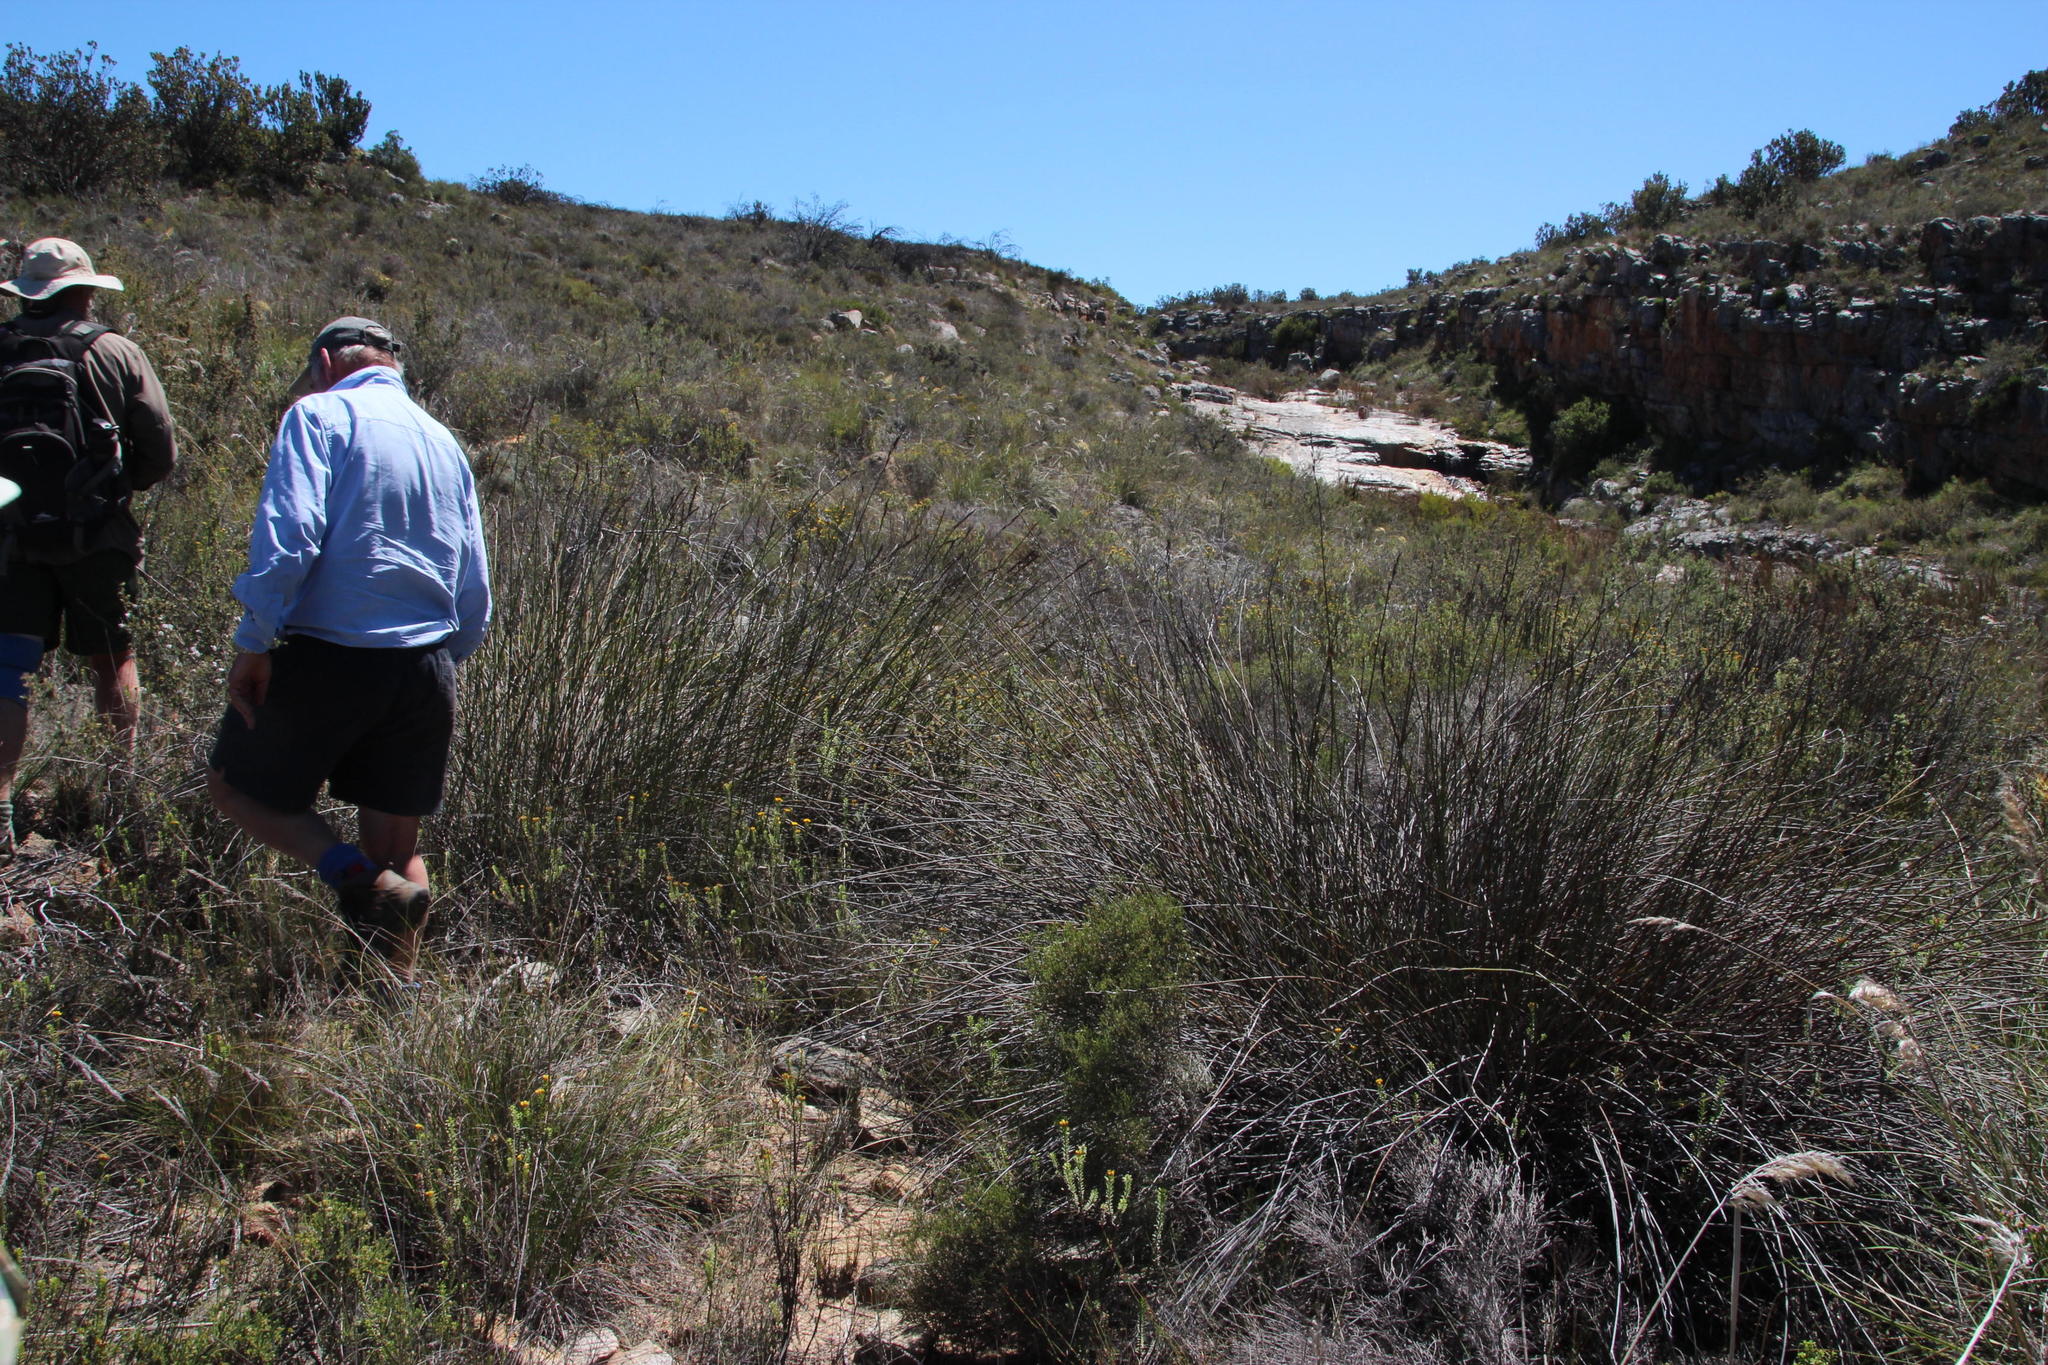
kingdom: Plantae
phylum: Tracheophyta
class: Liliopsida
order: Poales
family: Restionaceae
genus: Cannomois
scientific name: Cannomois parviflora
